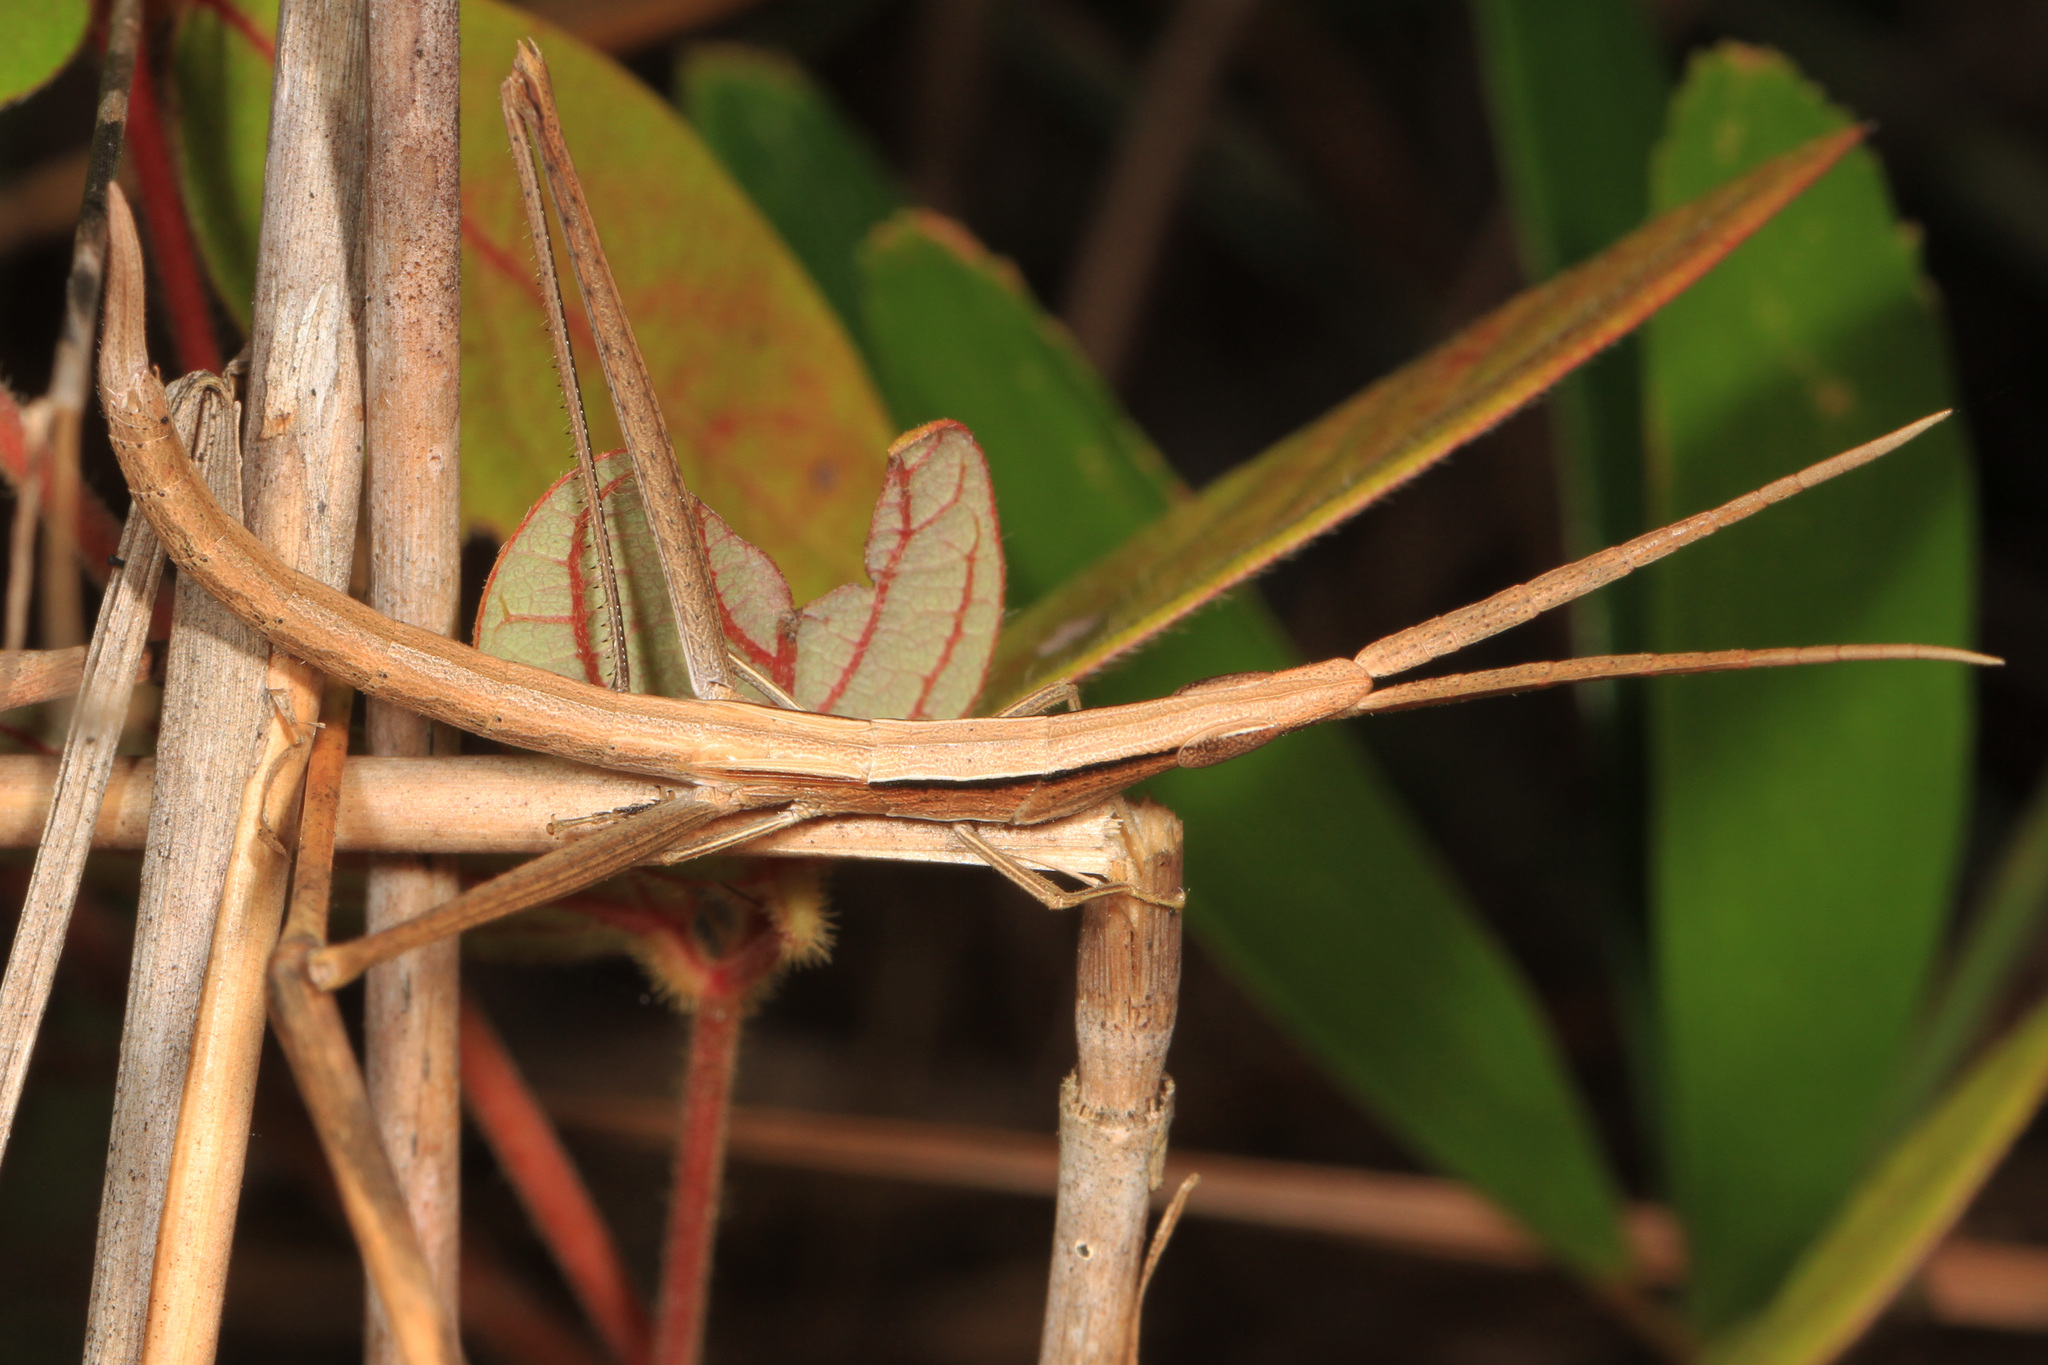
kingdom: Animalia
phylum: Arthropoda
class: Insecta
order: Orthoptera
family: Acrididae
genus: Achurum
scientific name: Achurum carinatum
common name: Long-headed toothpick grasshopper
